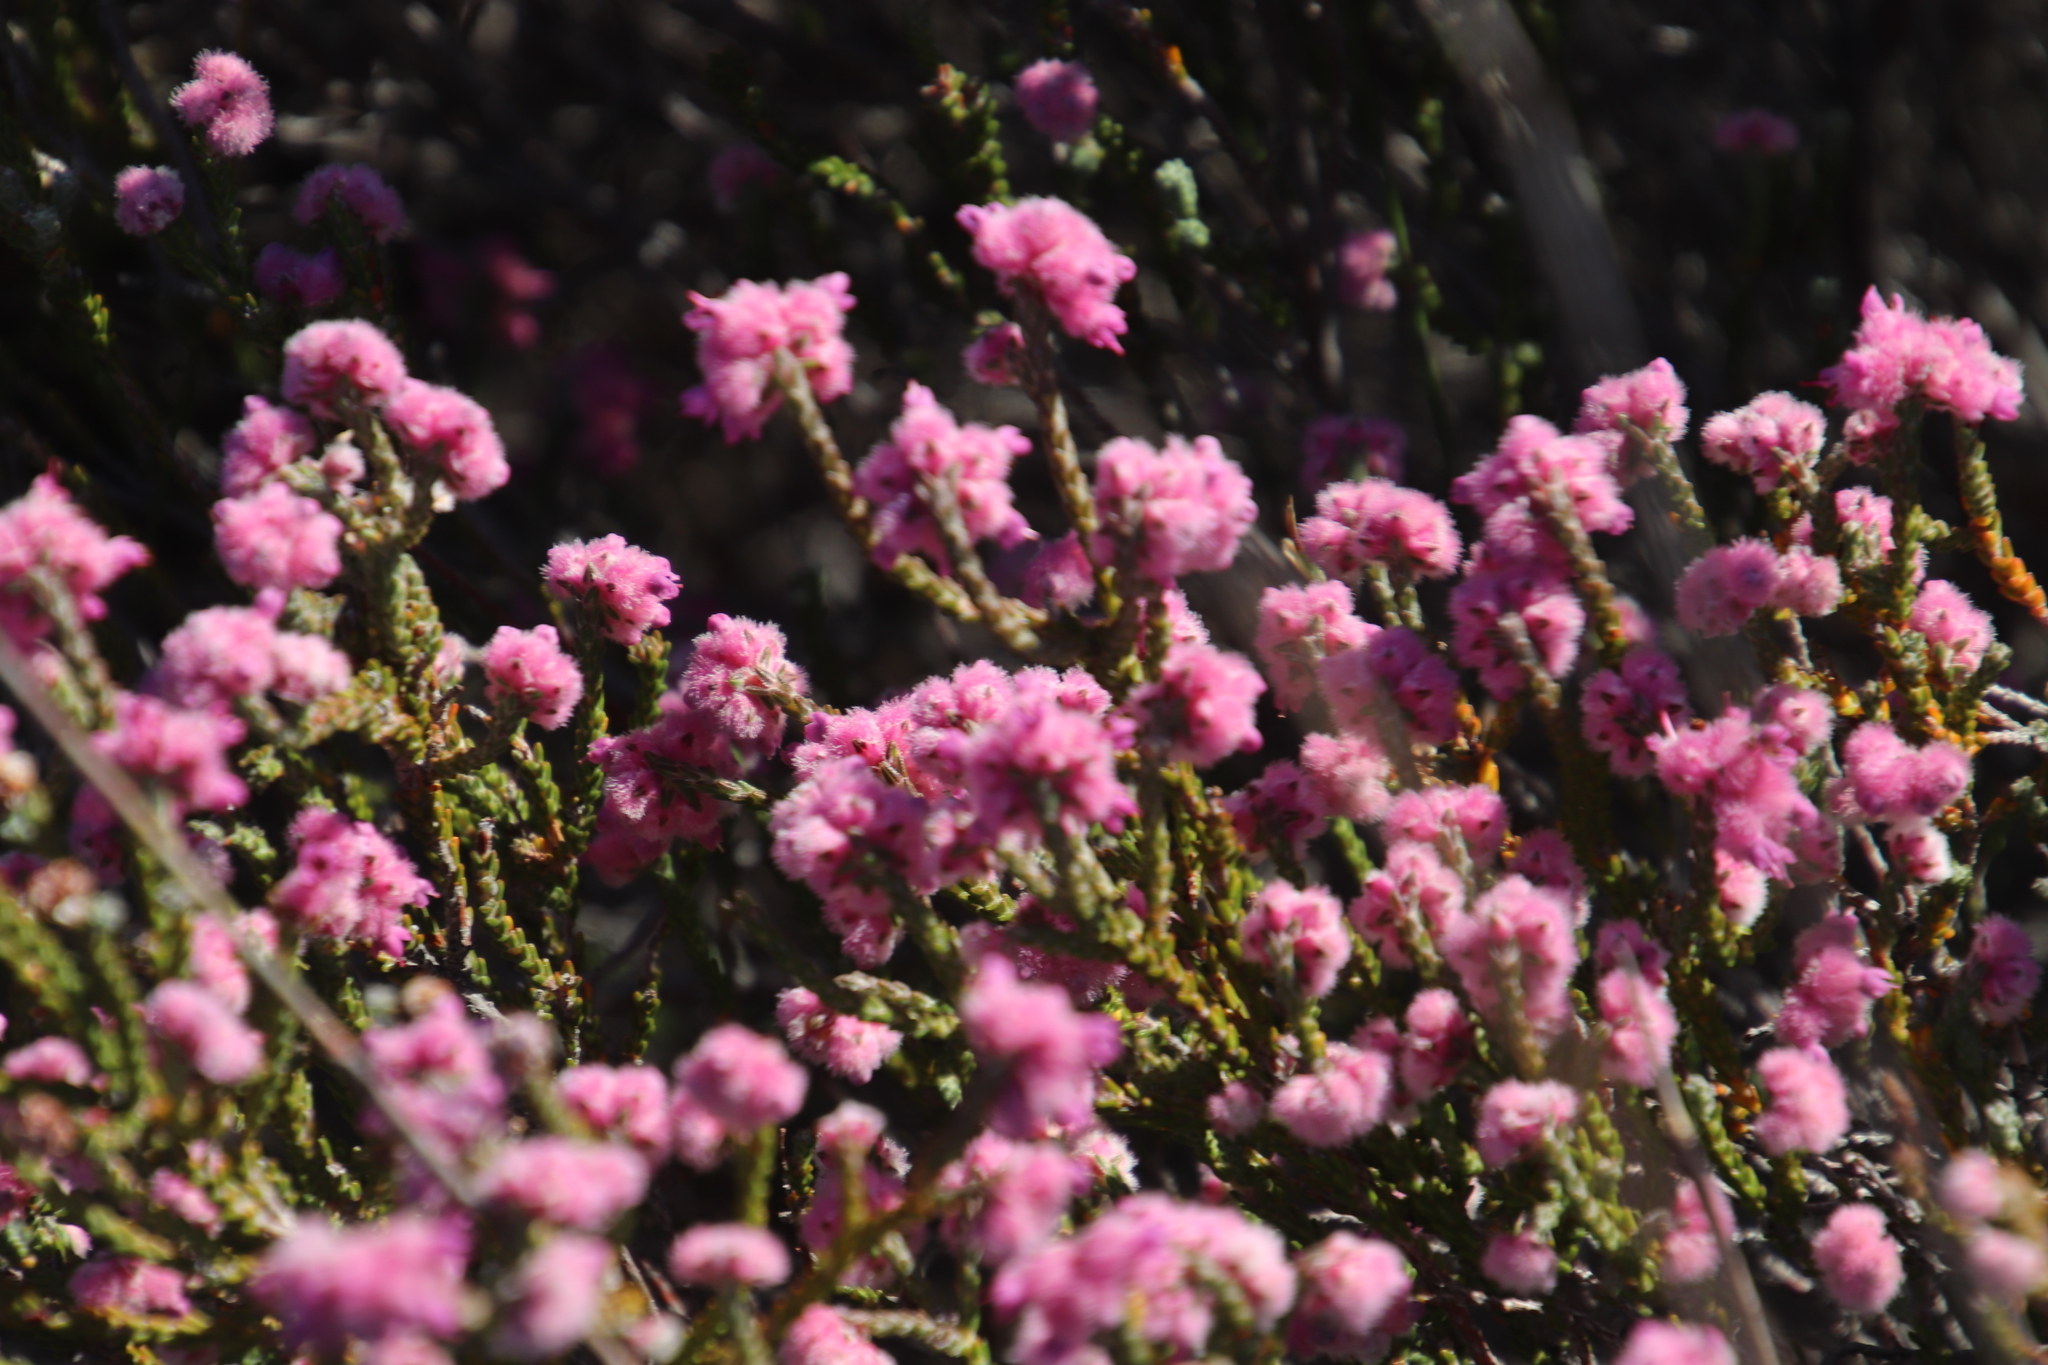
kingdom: Plantae
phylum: Tracheophyta
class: Magnoliopsida
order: Ericales
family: Ericaceae
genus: Erica
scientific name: Erica plumosa
